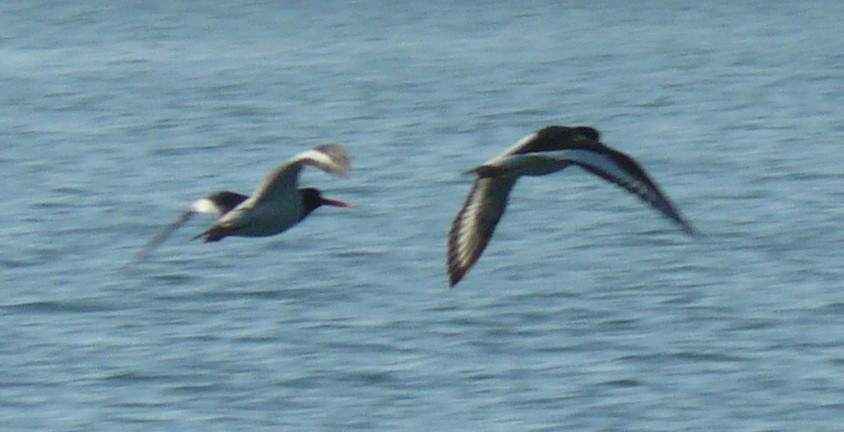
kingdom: Animalia
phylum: Chordata
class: Aves
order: Charadriiformes
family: Haematopodidae
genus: Haematopus
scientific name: Haematopus ostralegus
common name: Eurasian oystercatcher
